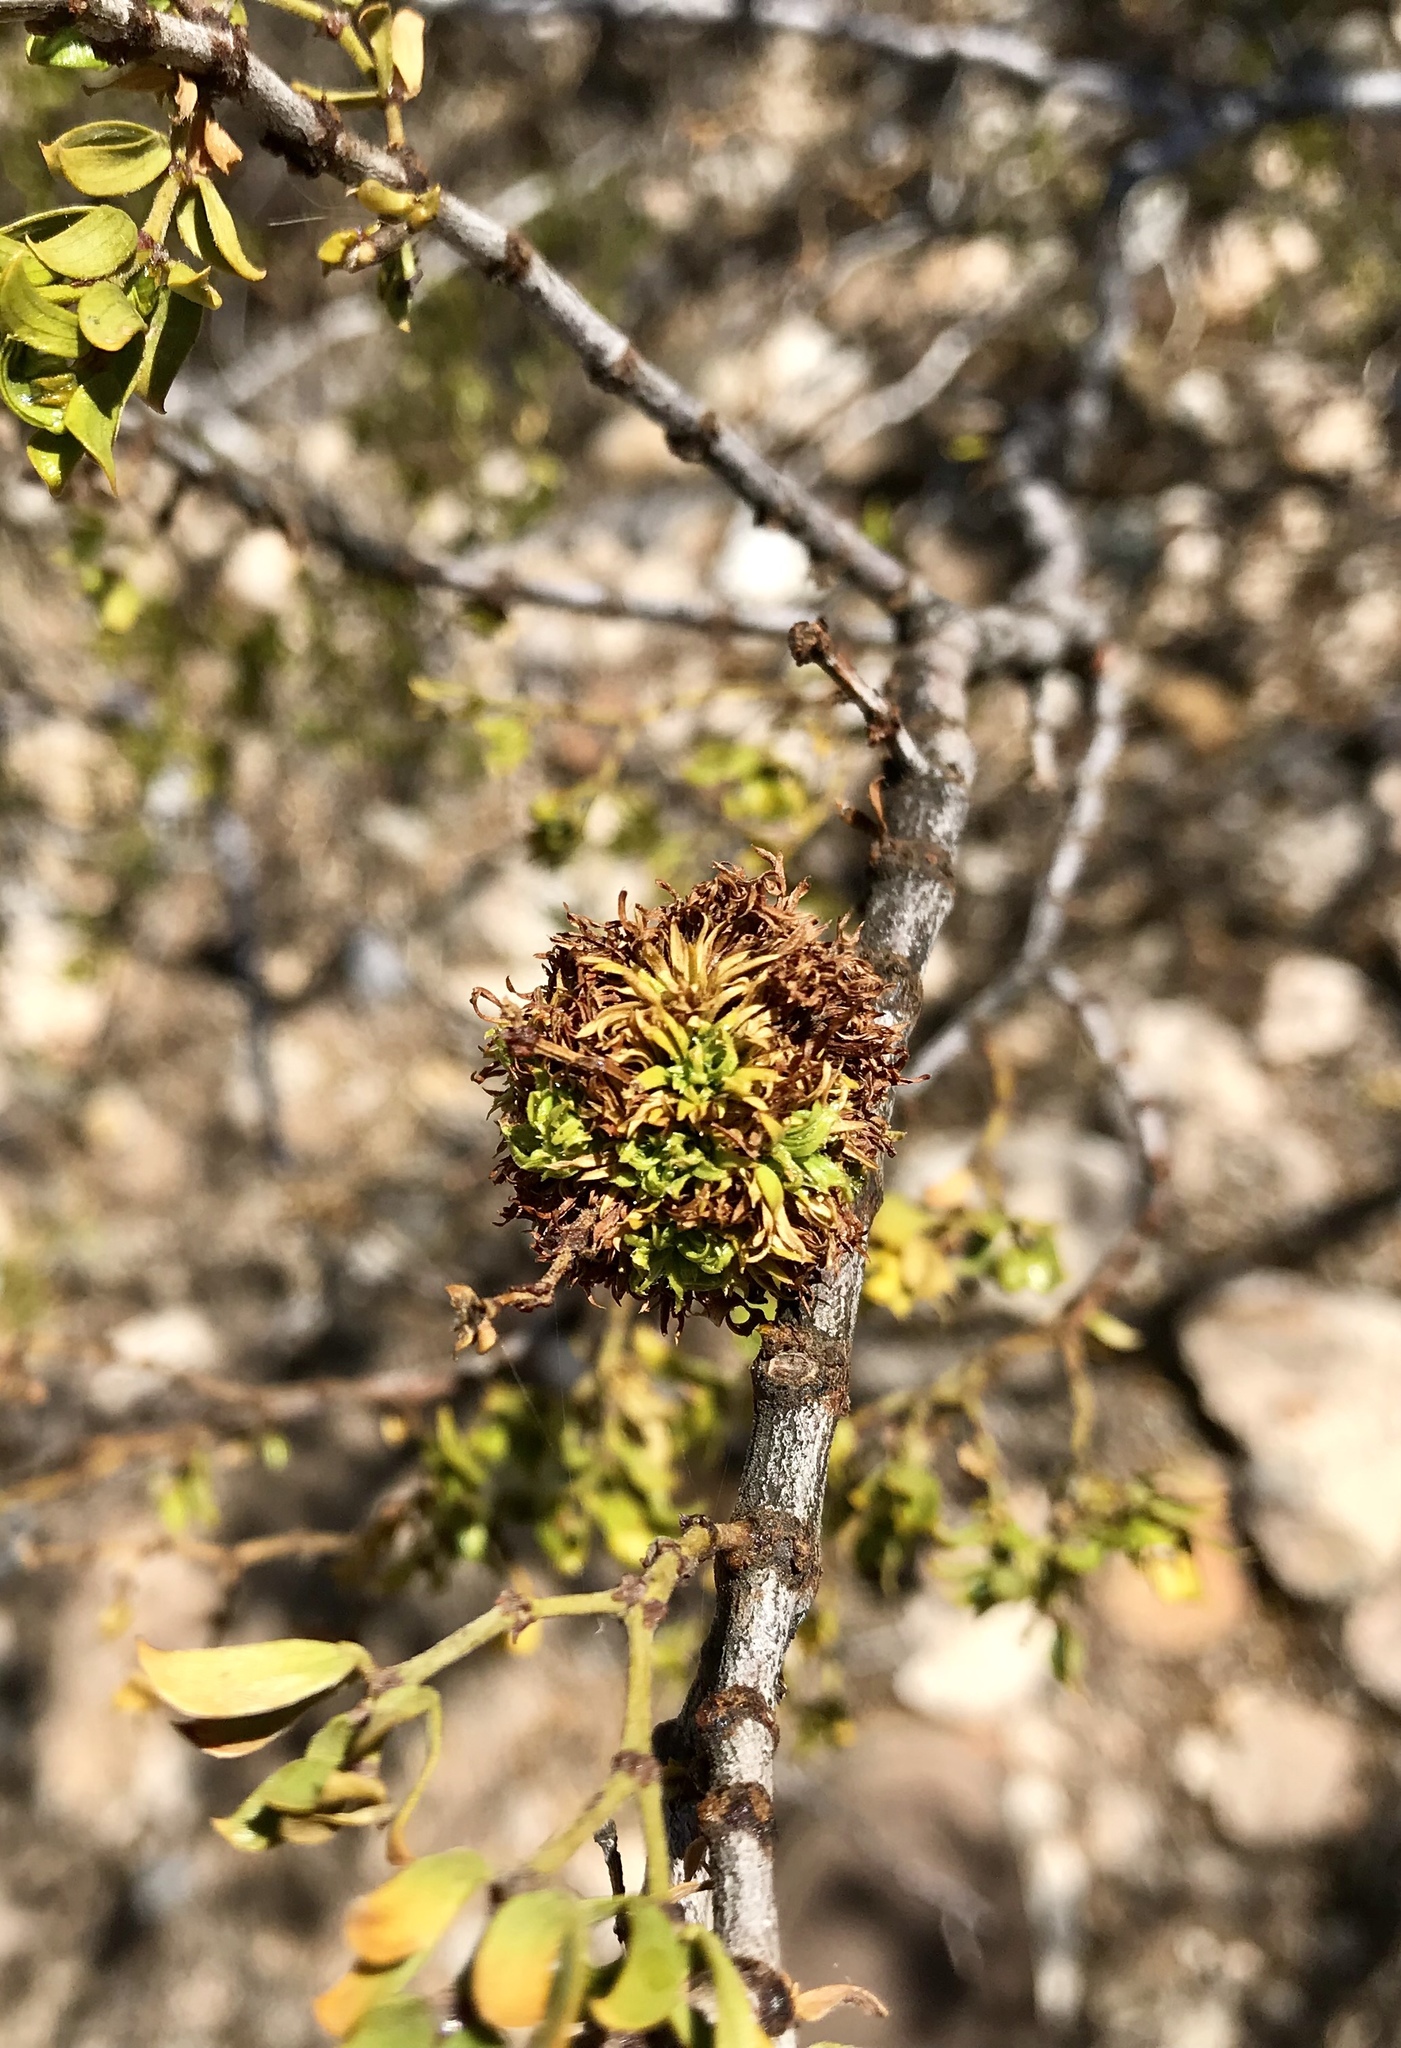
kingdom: Animalia
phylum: Arthropoda
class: Insecta
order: Diptera
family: Cecidomyiidae
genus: Asphondylia
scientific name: Asphondylia auripila
